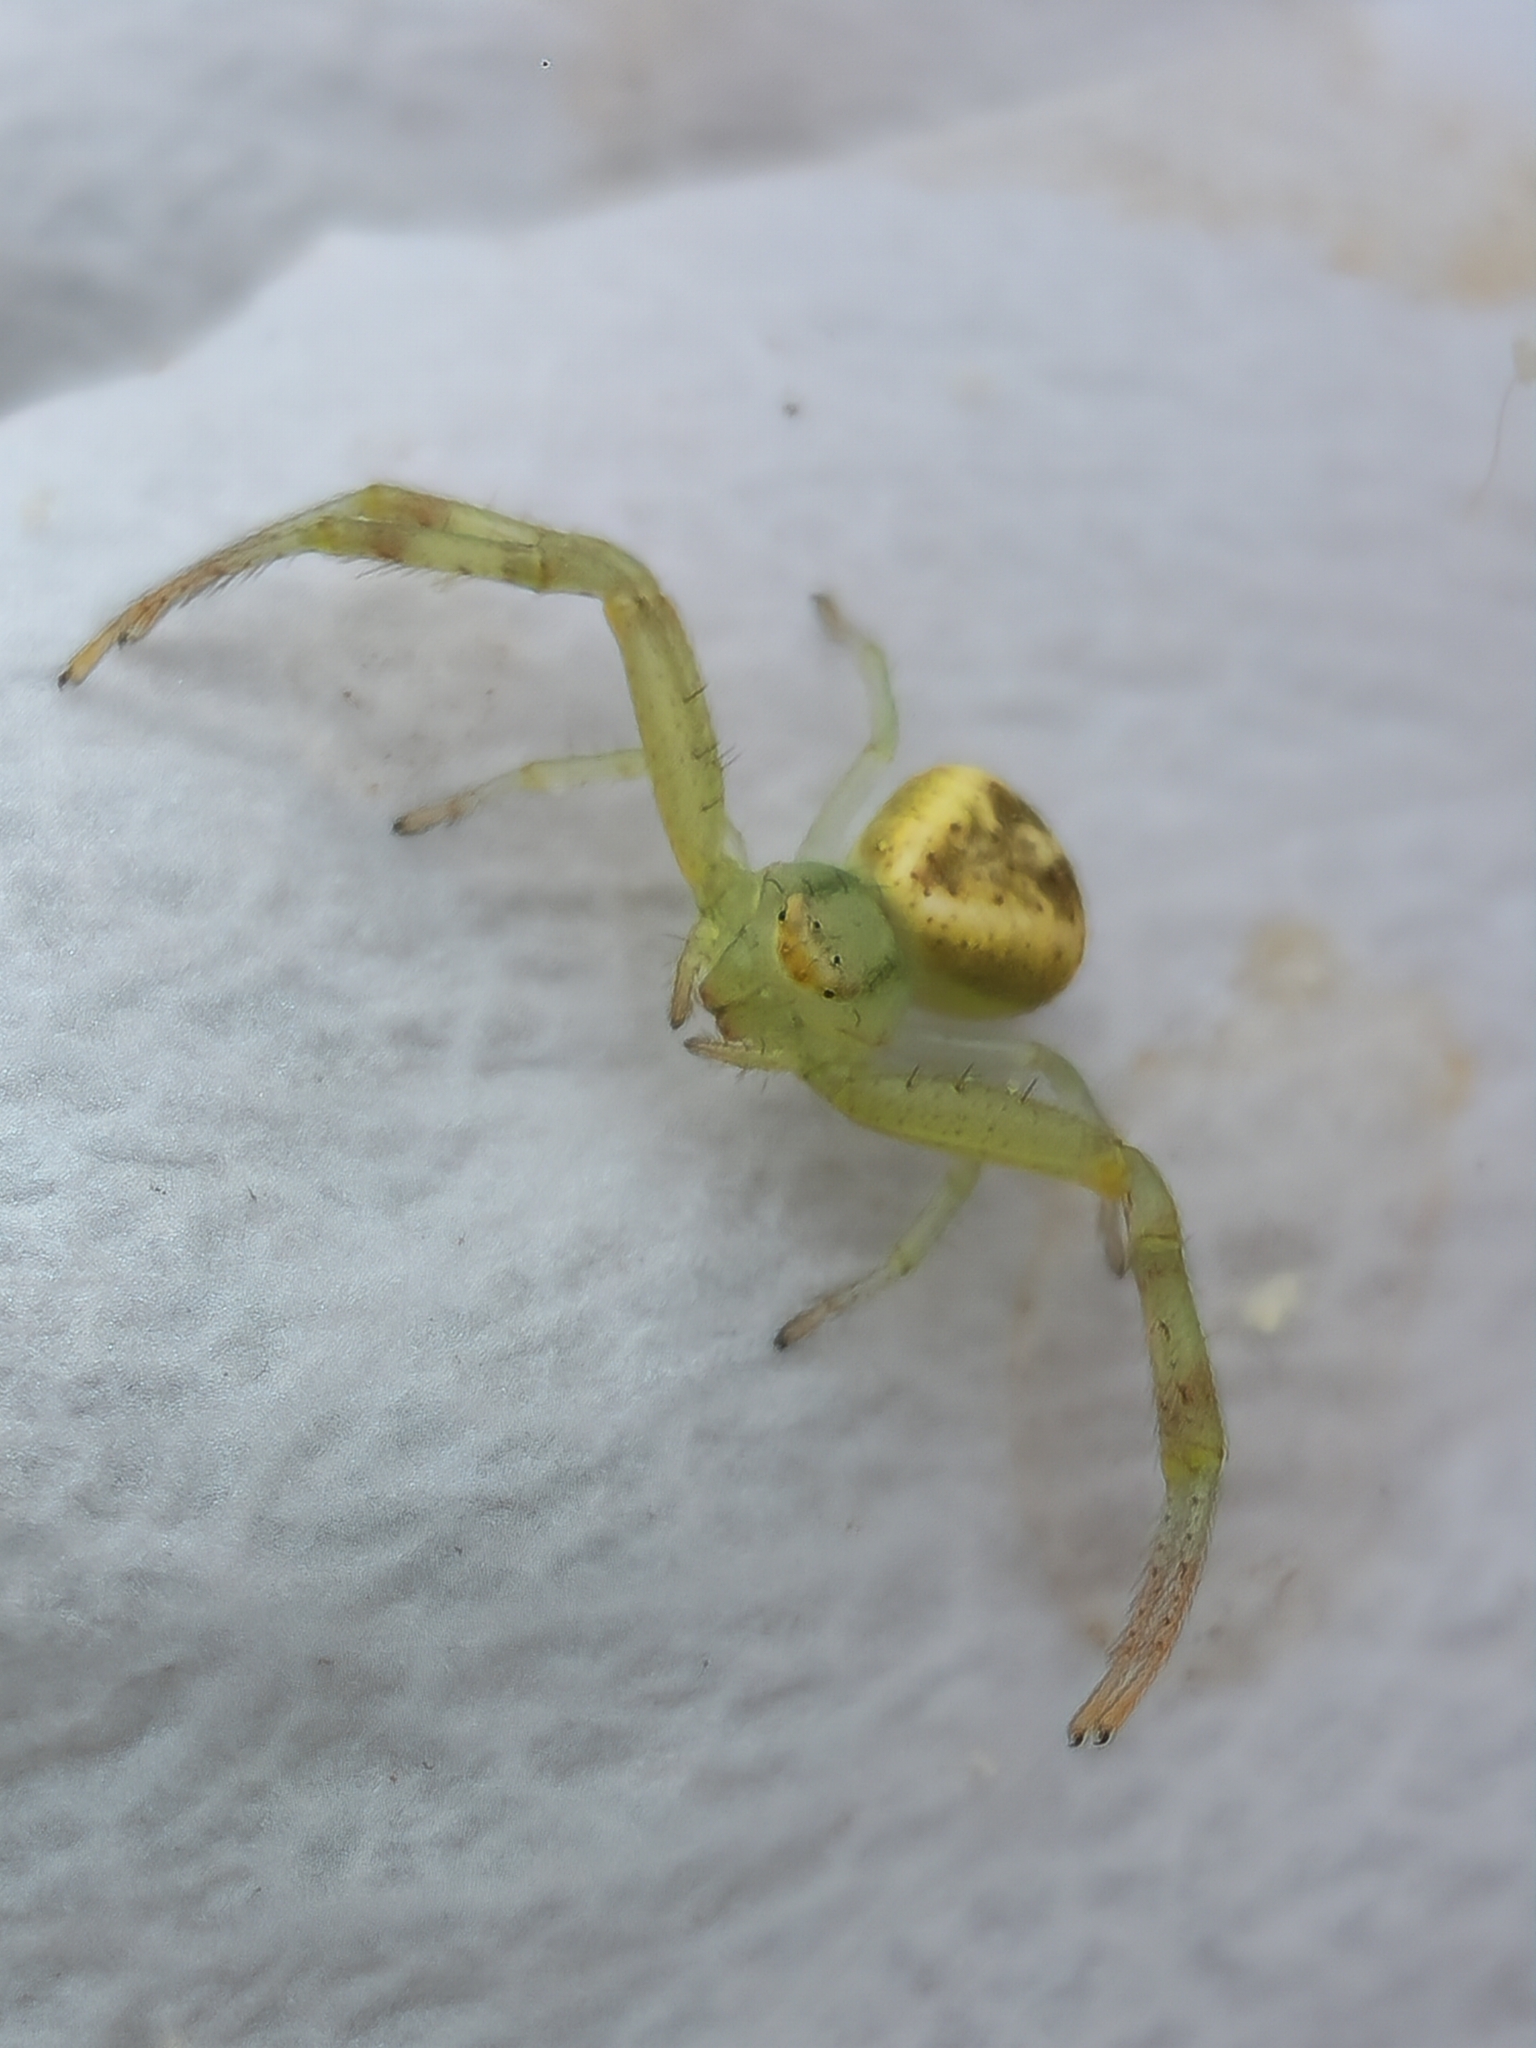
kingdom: Animalia
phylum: Arthropoda
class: Arachnida
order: Araneae
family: Thomisidae
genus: Misumenops
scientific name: Misumenops
